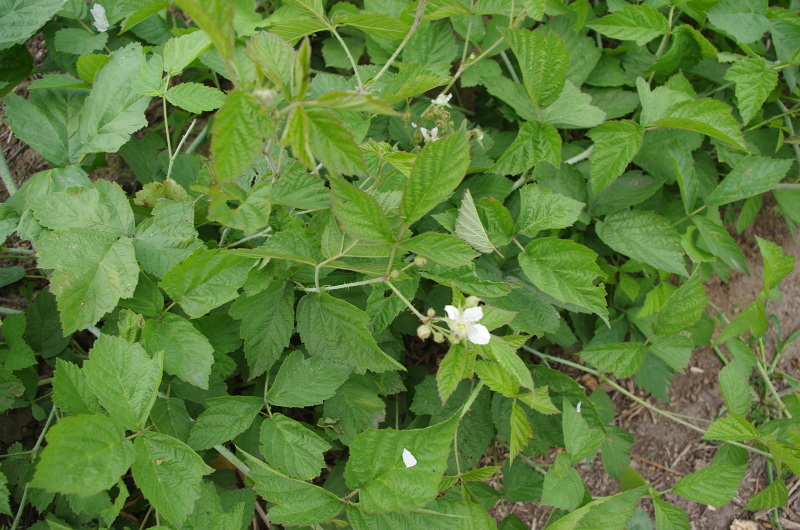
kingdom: Plantae
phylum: Tracheophyta
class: Magnoliopsida
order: Rosales
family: Rosaceae
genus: Rubus
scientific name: Rubus caesius
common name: Dewberry
